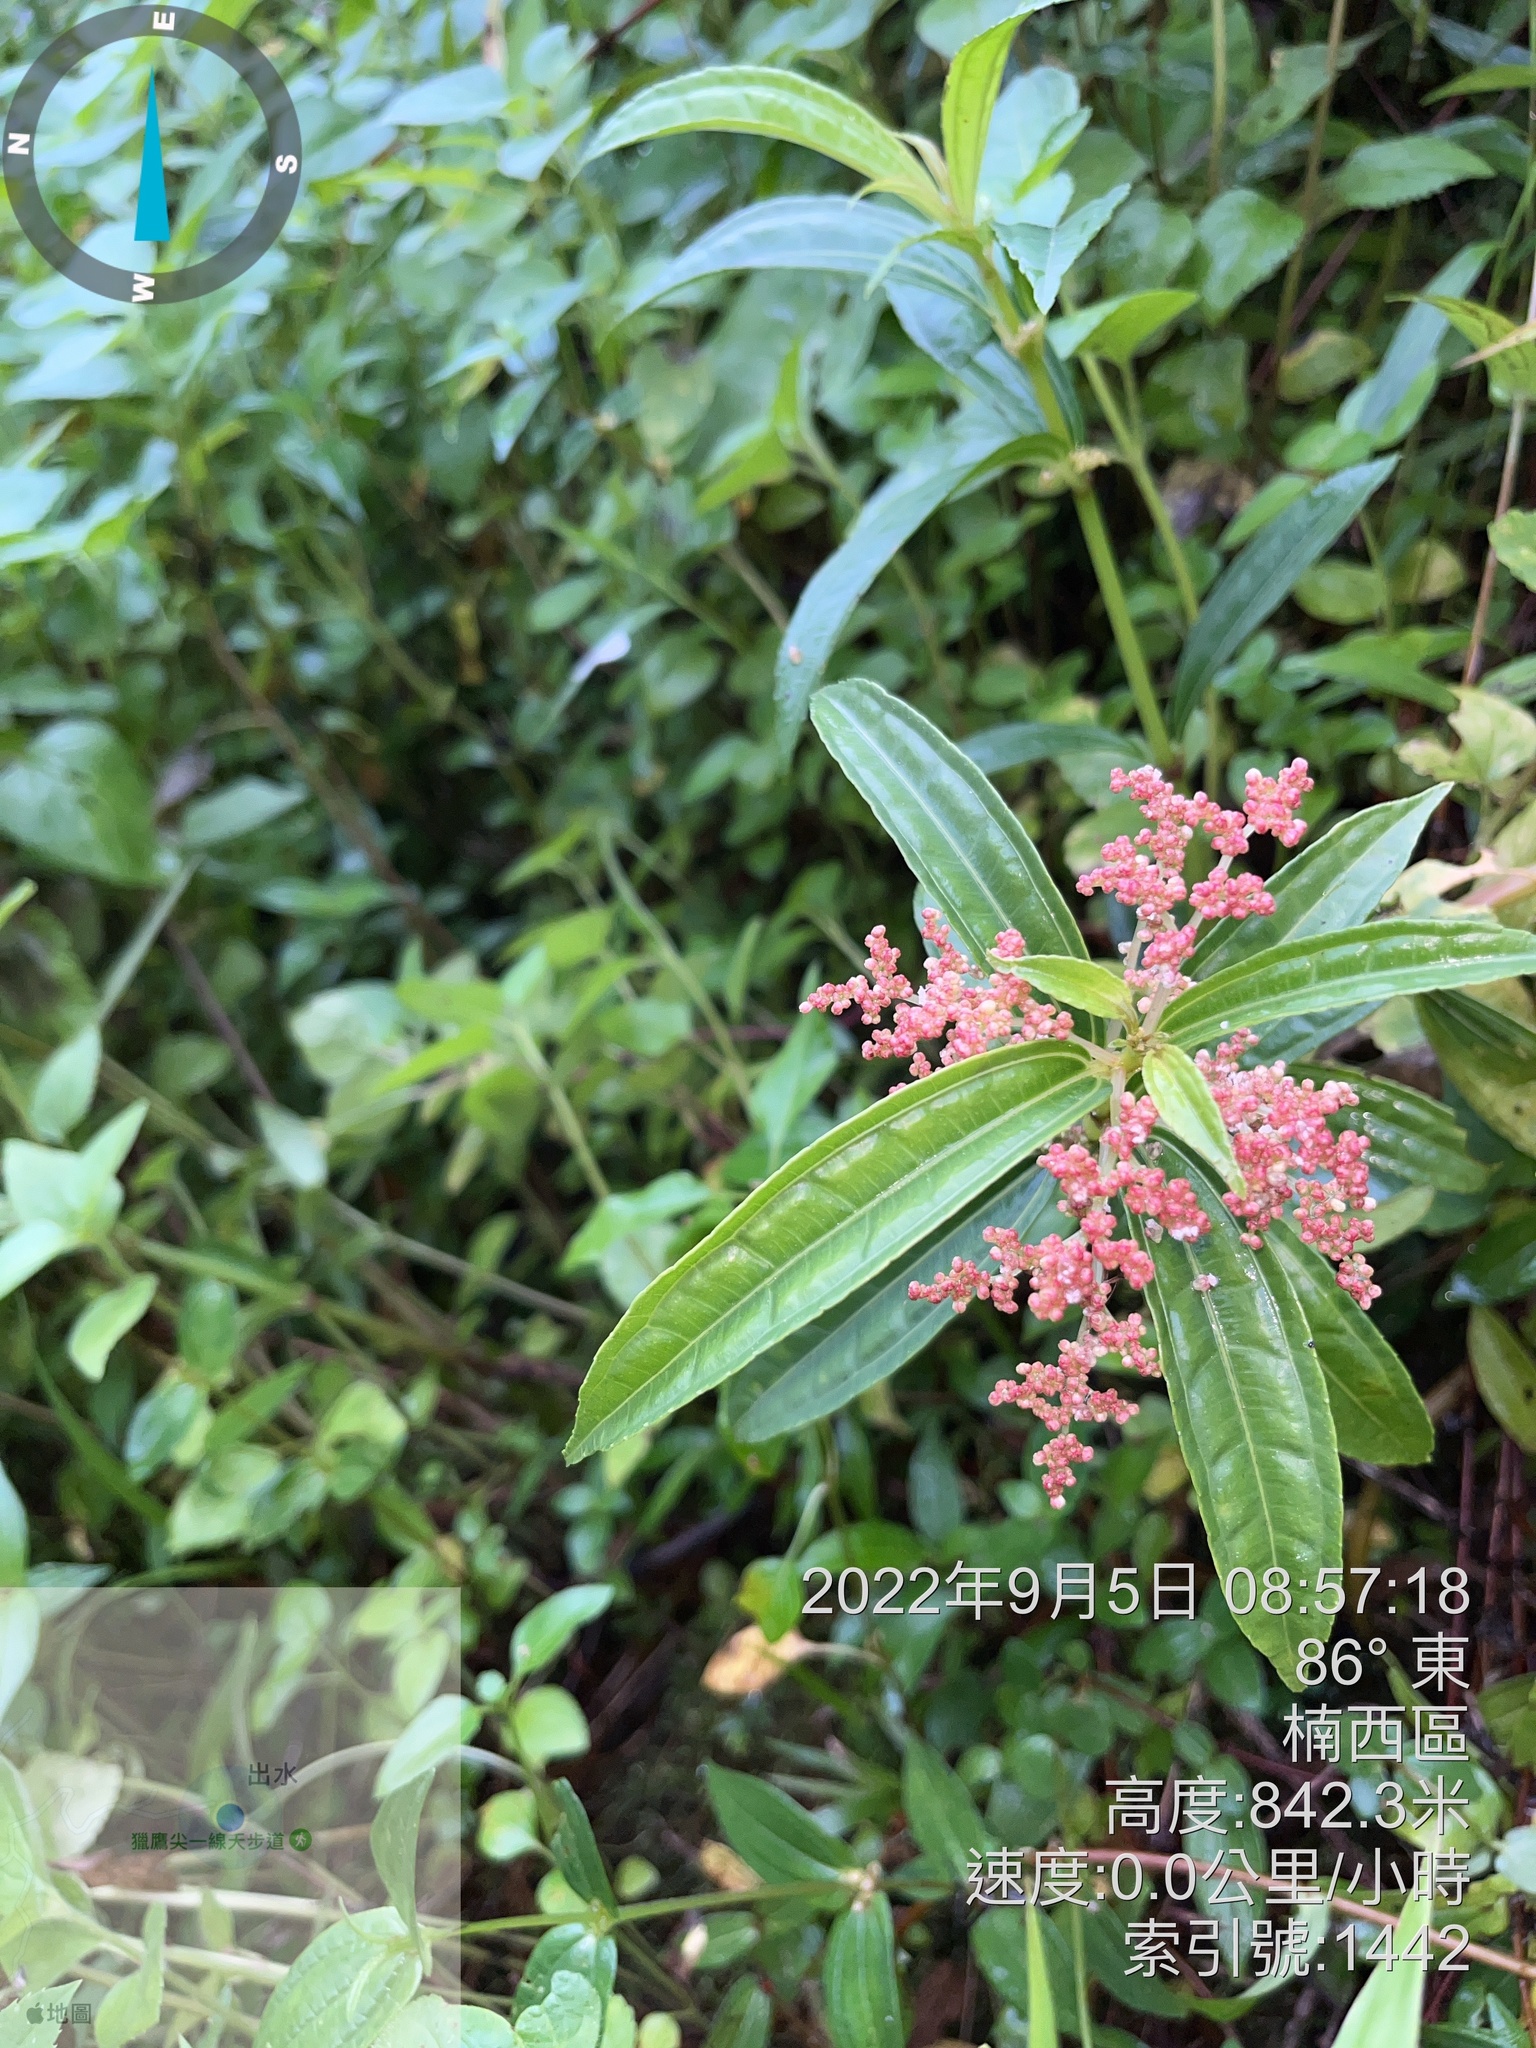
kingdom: Plantae
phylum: Tracheophyta
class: Magnoliopsida
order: Rosales
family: Urticaceae
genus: Pilea
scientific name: Pilea rotundinucula
